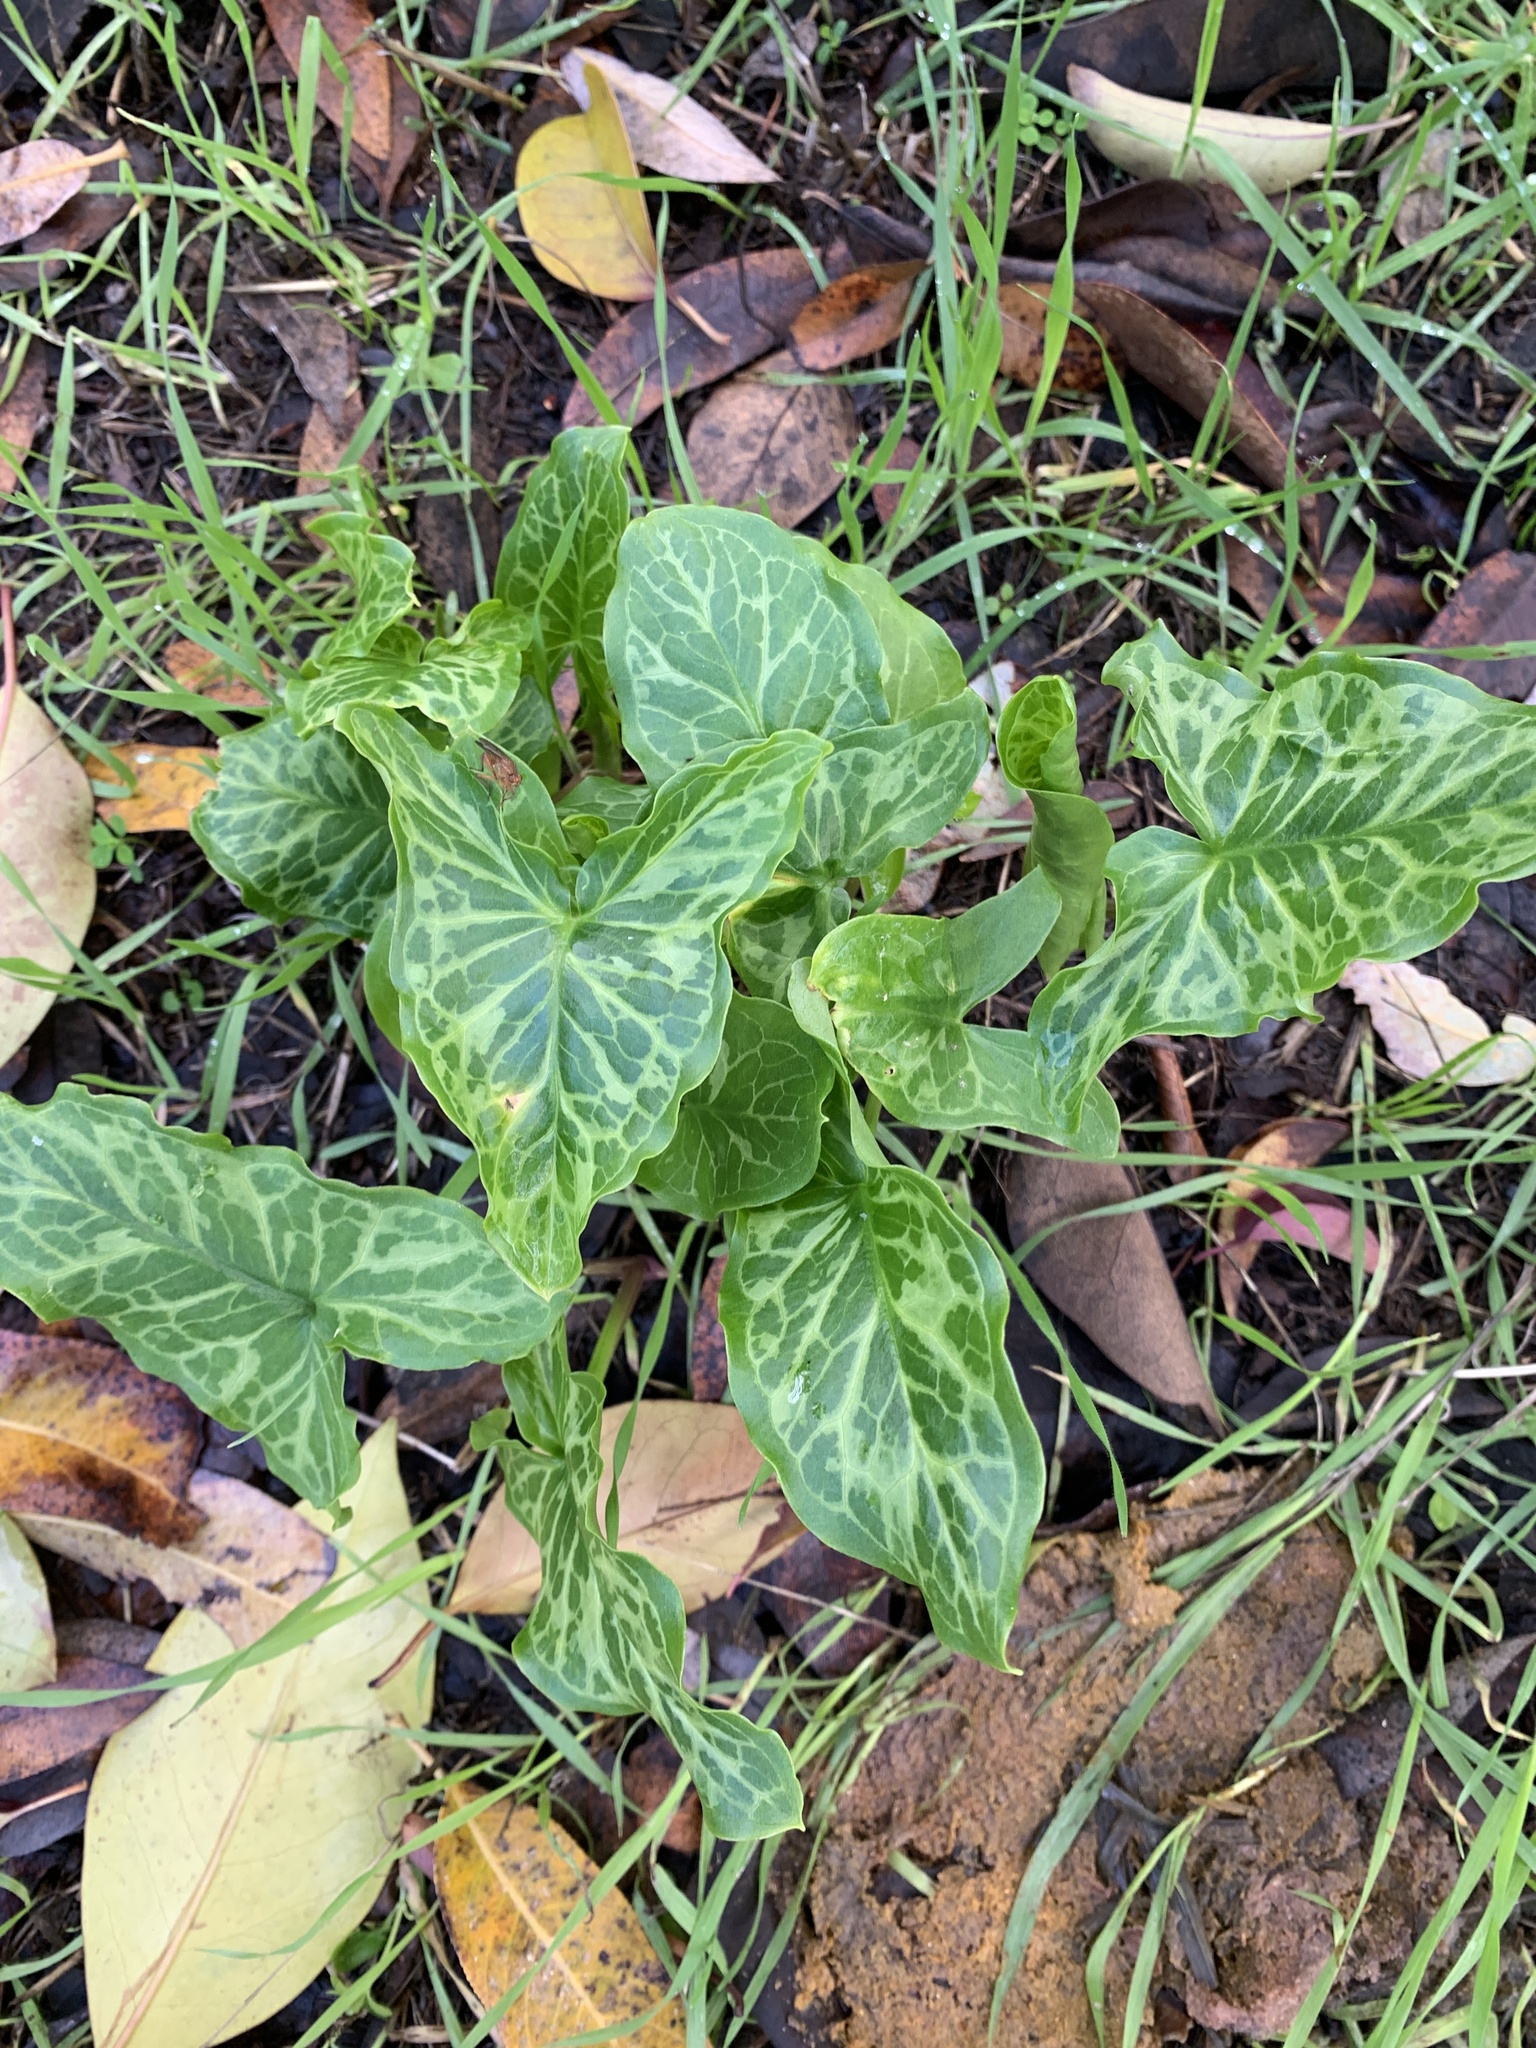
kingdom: Plantae
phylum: Tracheophyta
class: Liliopsida
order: Alismatales
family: Araceae
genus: Arum
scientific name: Arum italicum
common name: Italian lords-and-ladies
